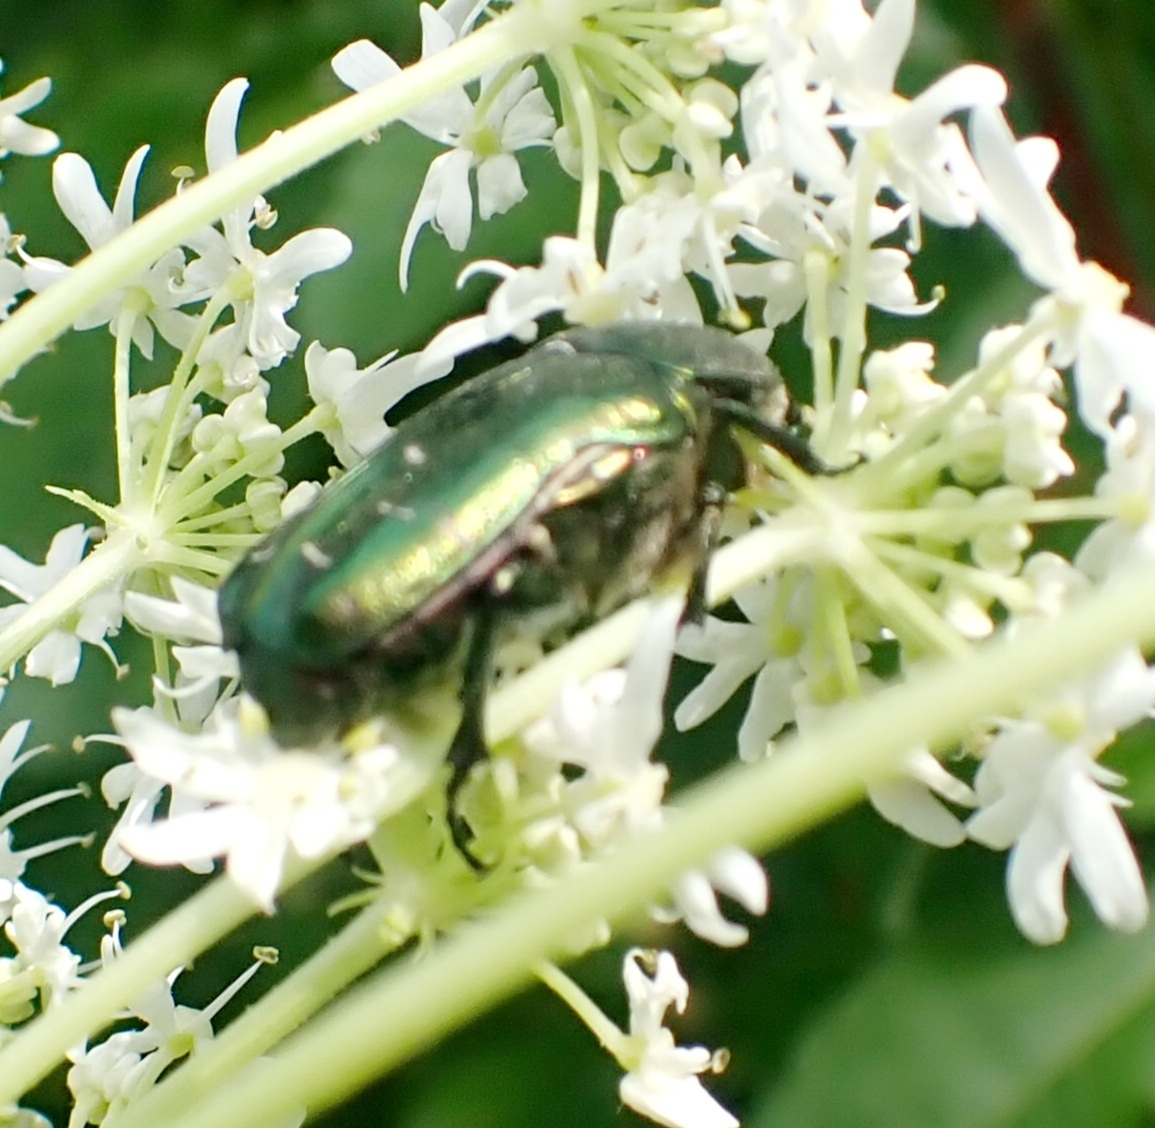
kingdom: Animalia
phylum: Arthropoda
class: Insecta
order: Coleoptera
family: Scarabaeidae
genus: Cetonia
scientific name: Cetonia aurata
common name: Rose chafer
